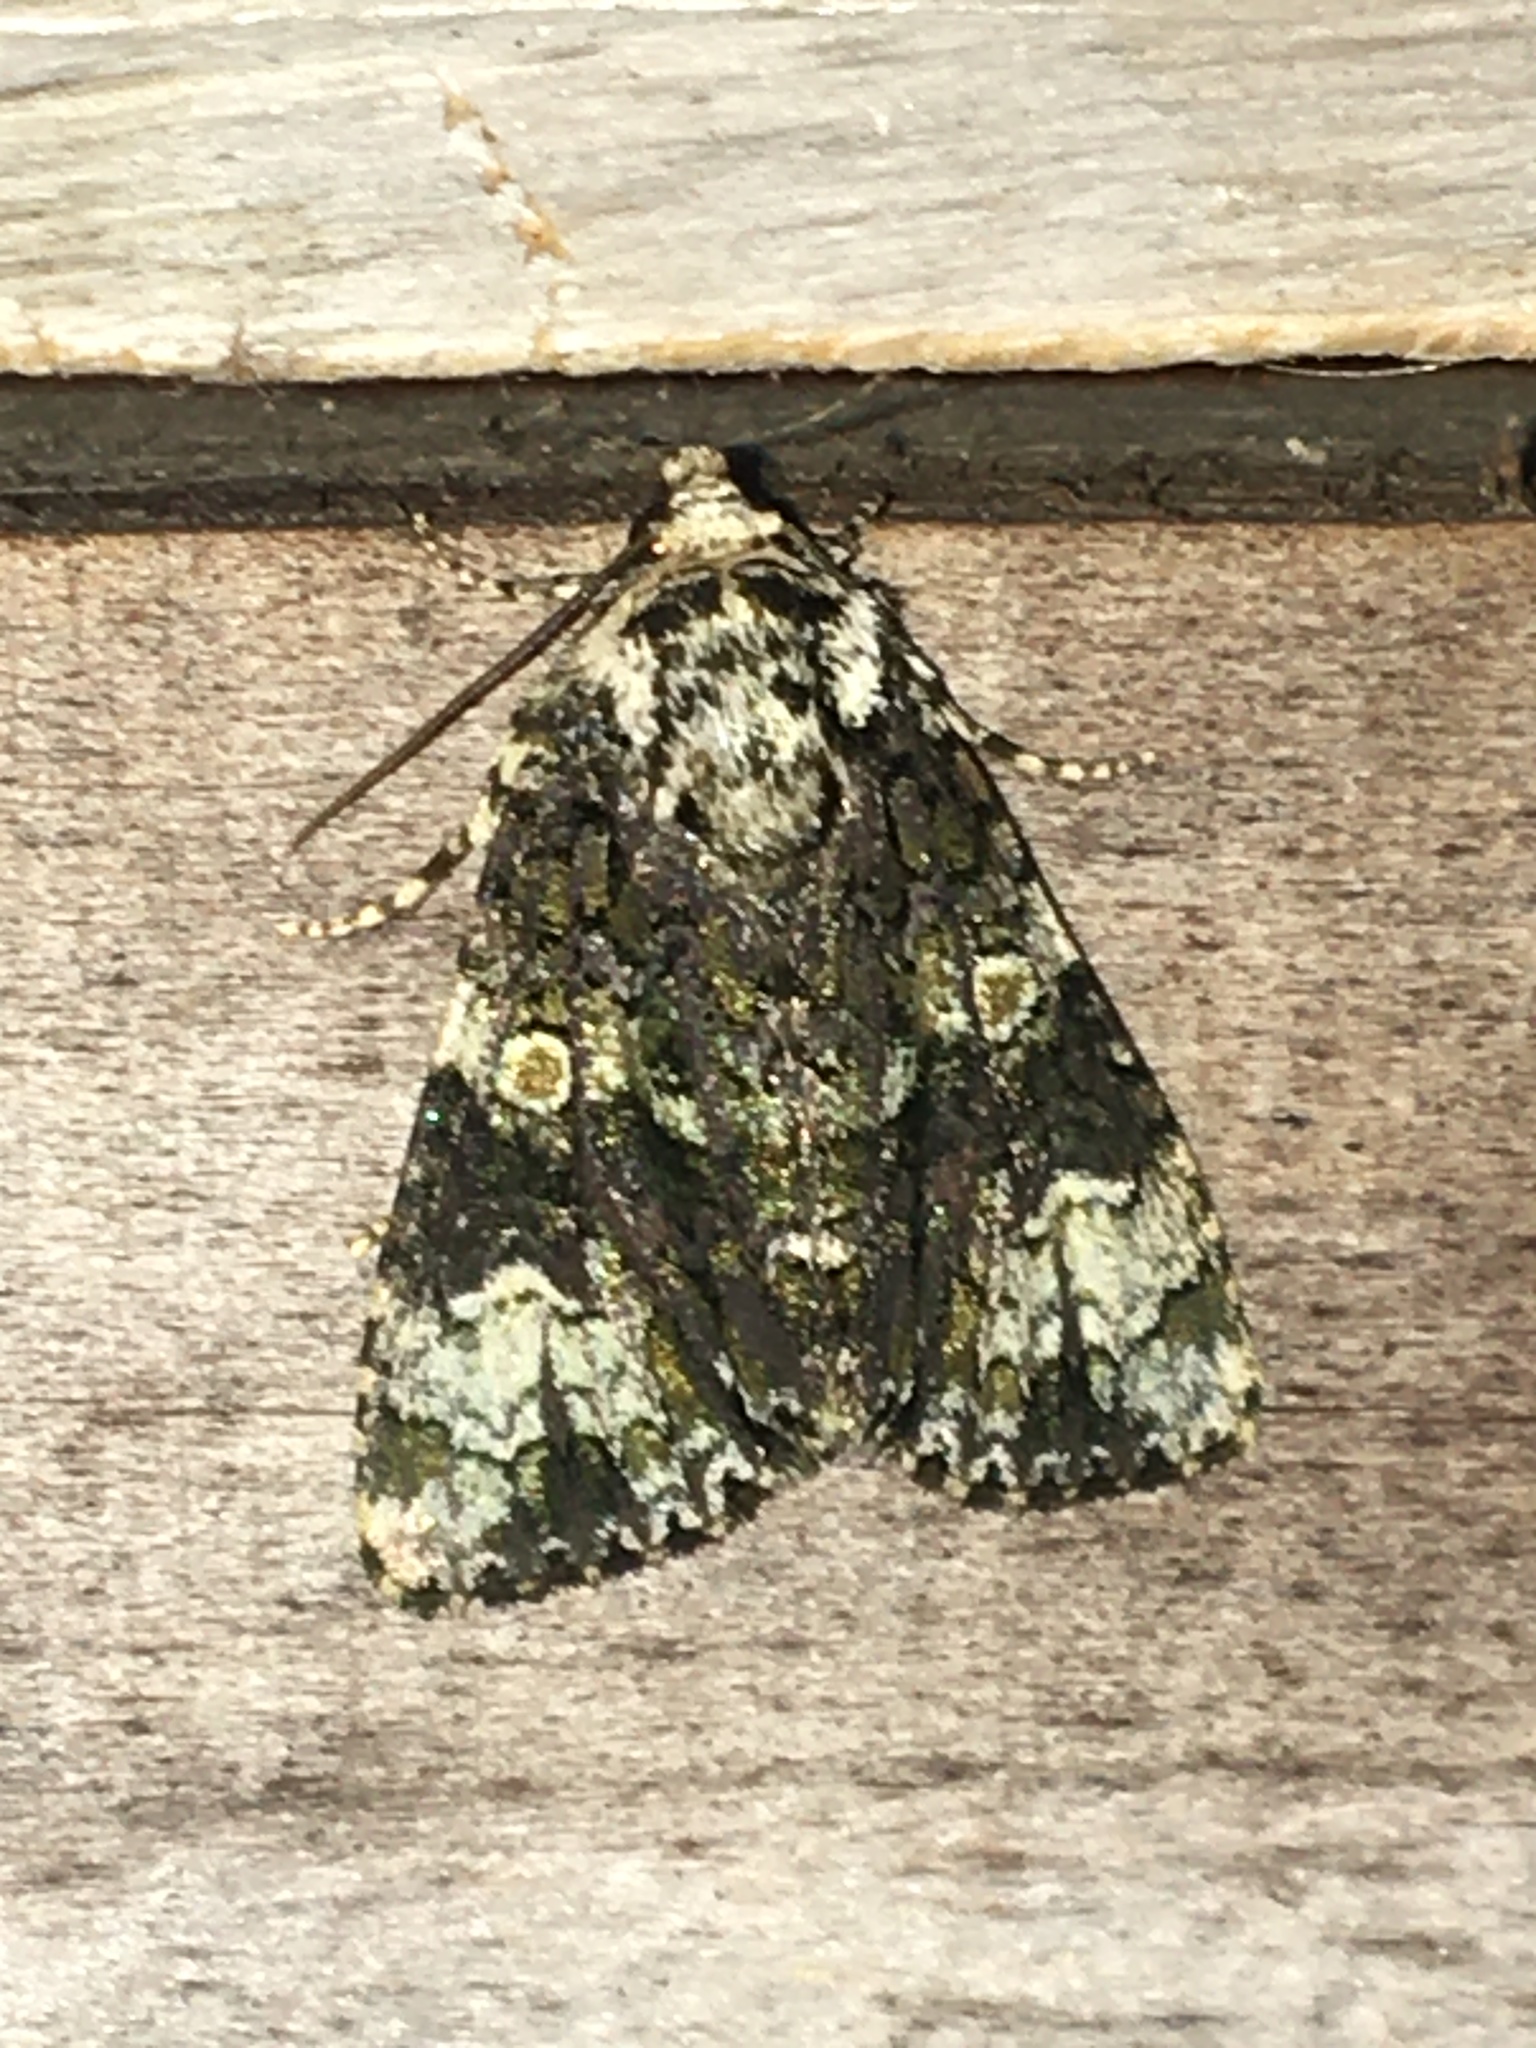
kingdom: Animalia
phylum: Arthropoda
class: Insecta
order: Lepidoptera
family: Noctuidae
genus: Craniophora
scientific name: Craniophora ligustri
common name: Coronet
